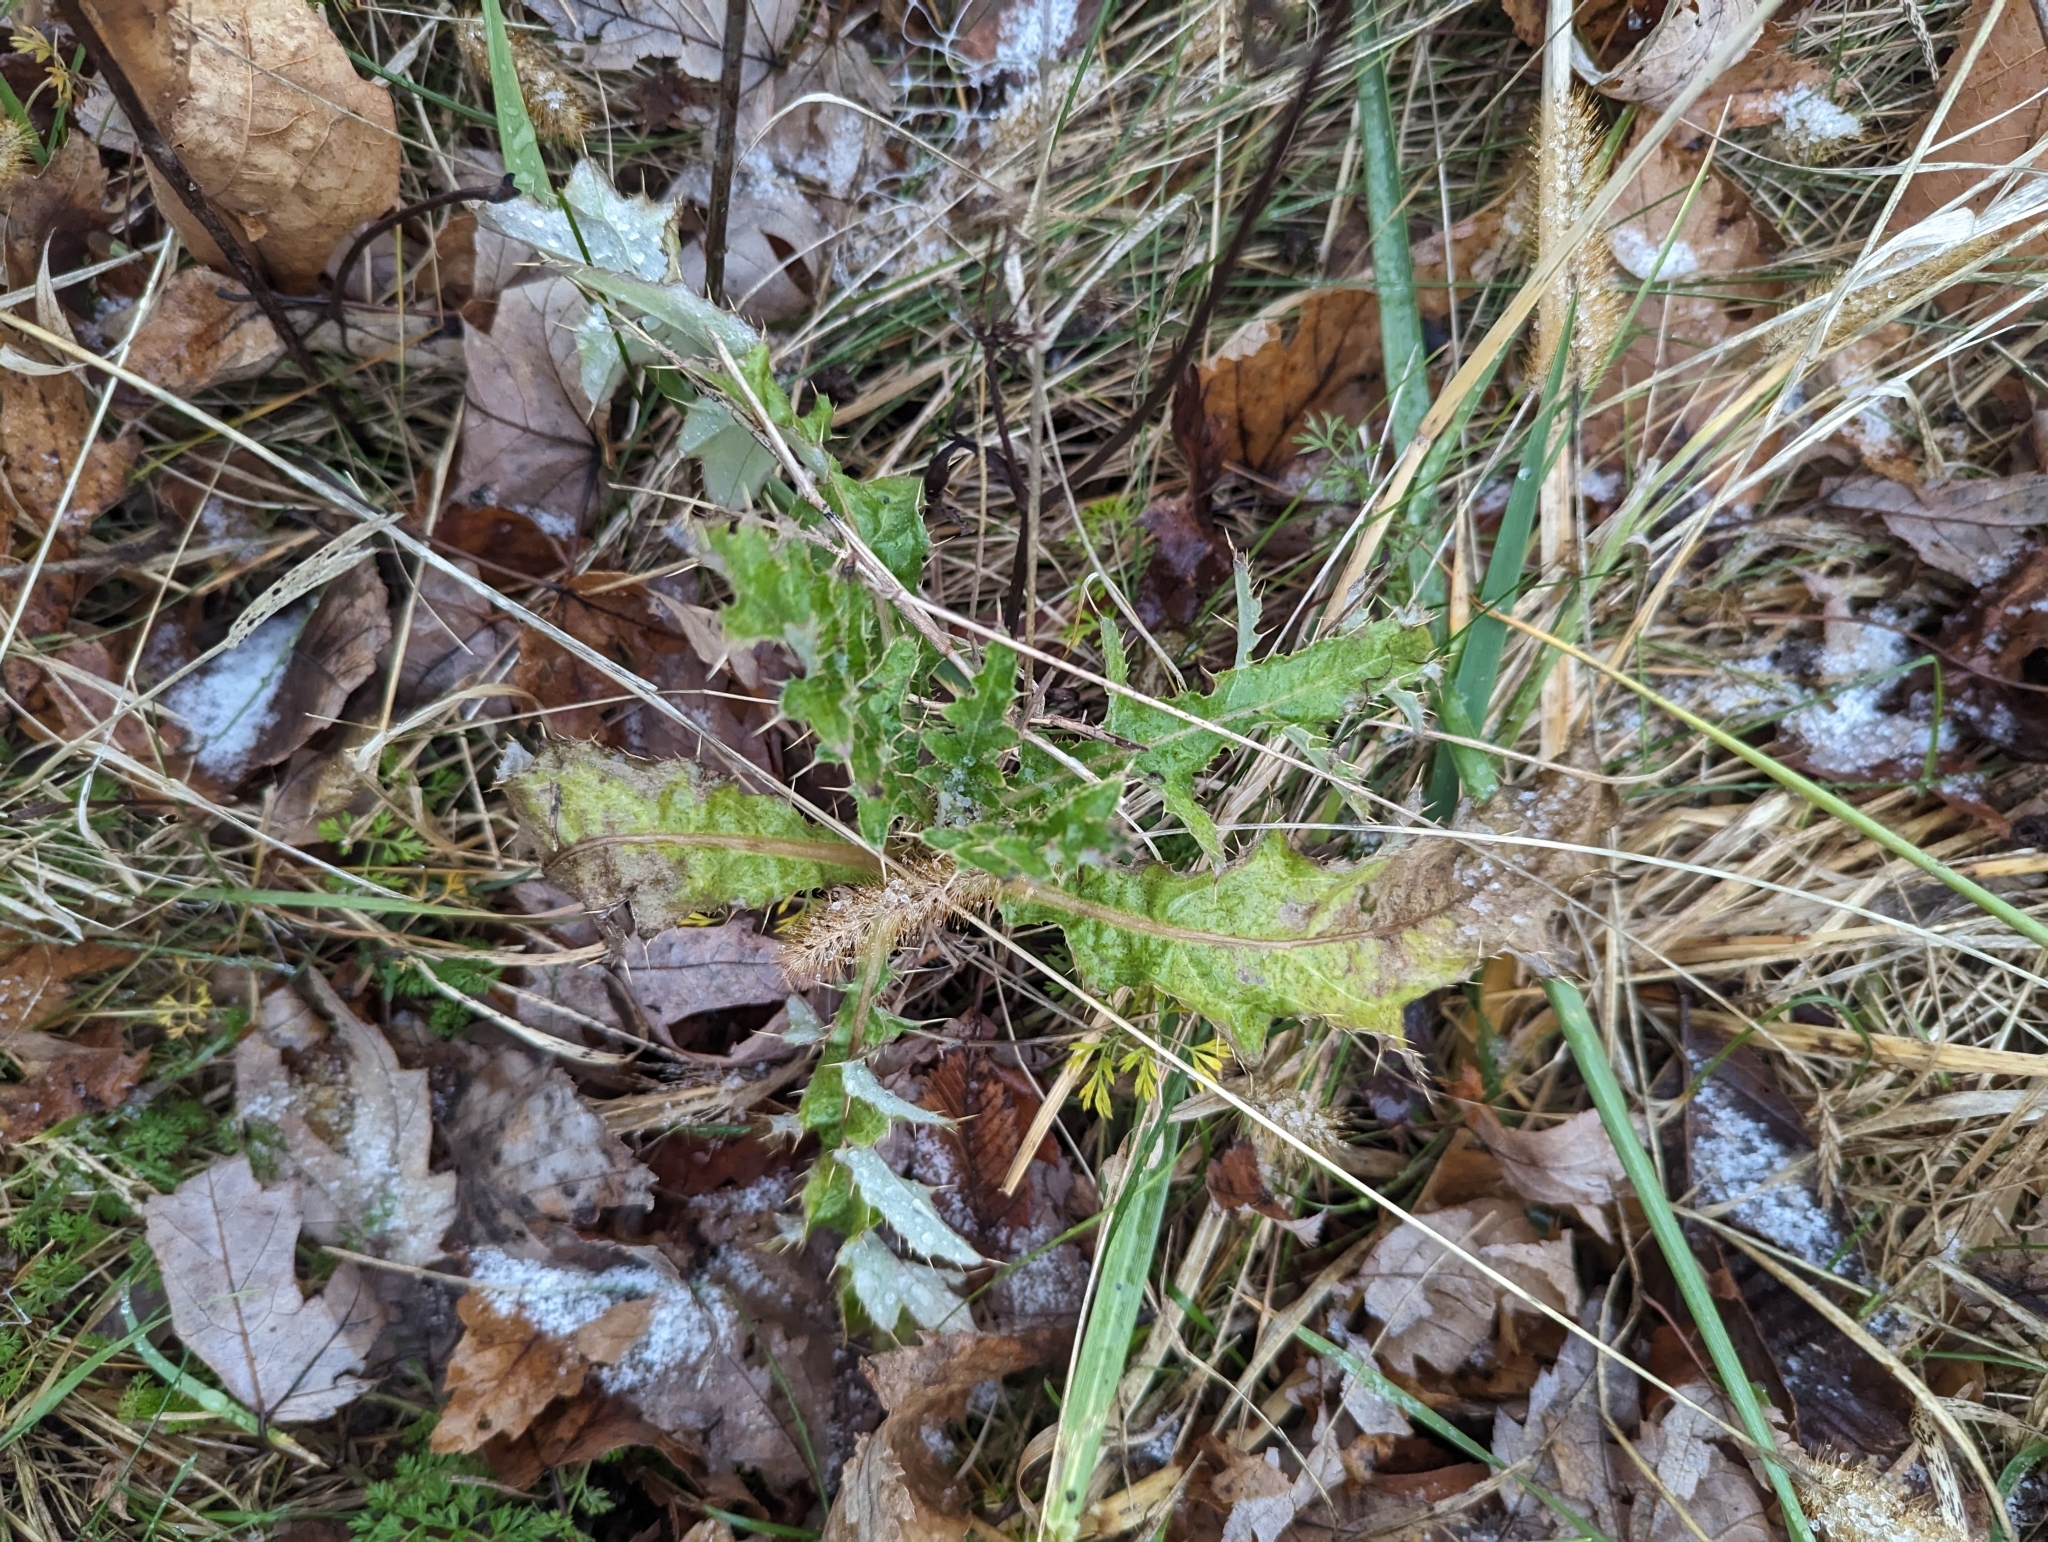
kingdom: Plantae
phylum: Tracheophyta
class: Magnoliopsida
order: Asterales
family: Asteraceae
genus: Cirsium
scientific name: Cirsium arvense
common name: Creeping thistle
